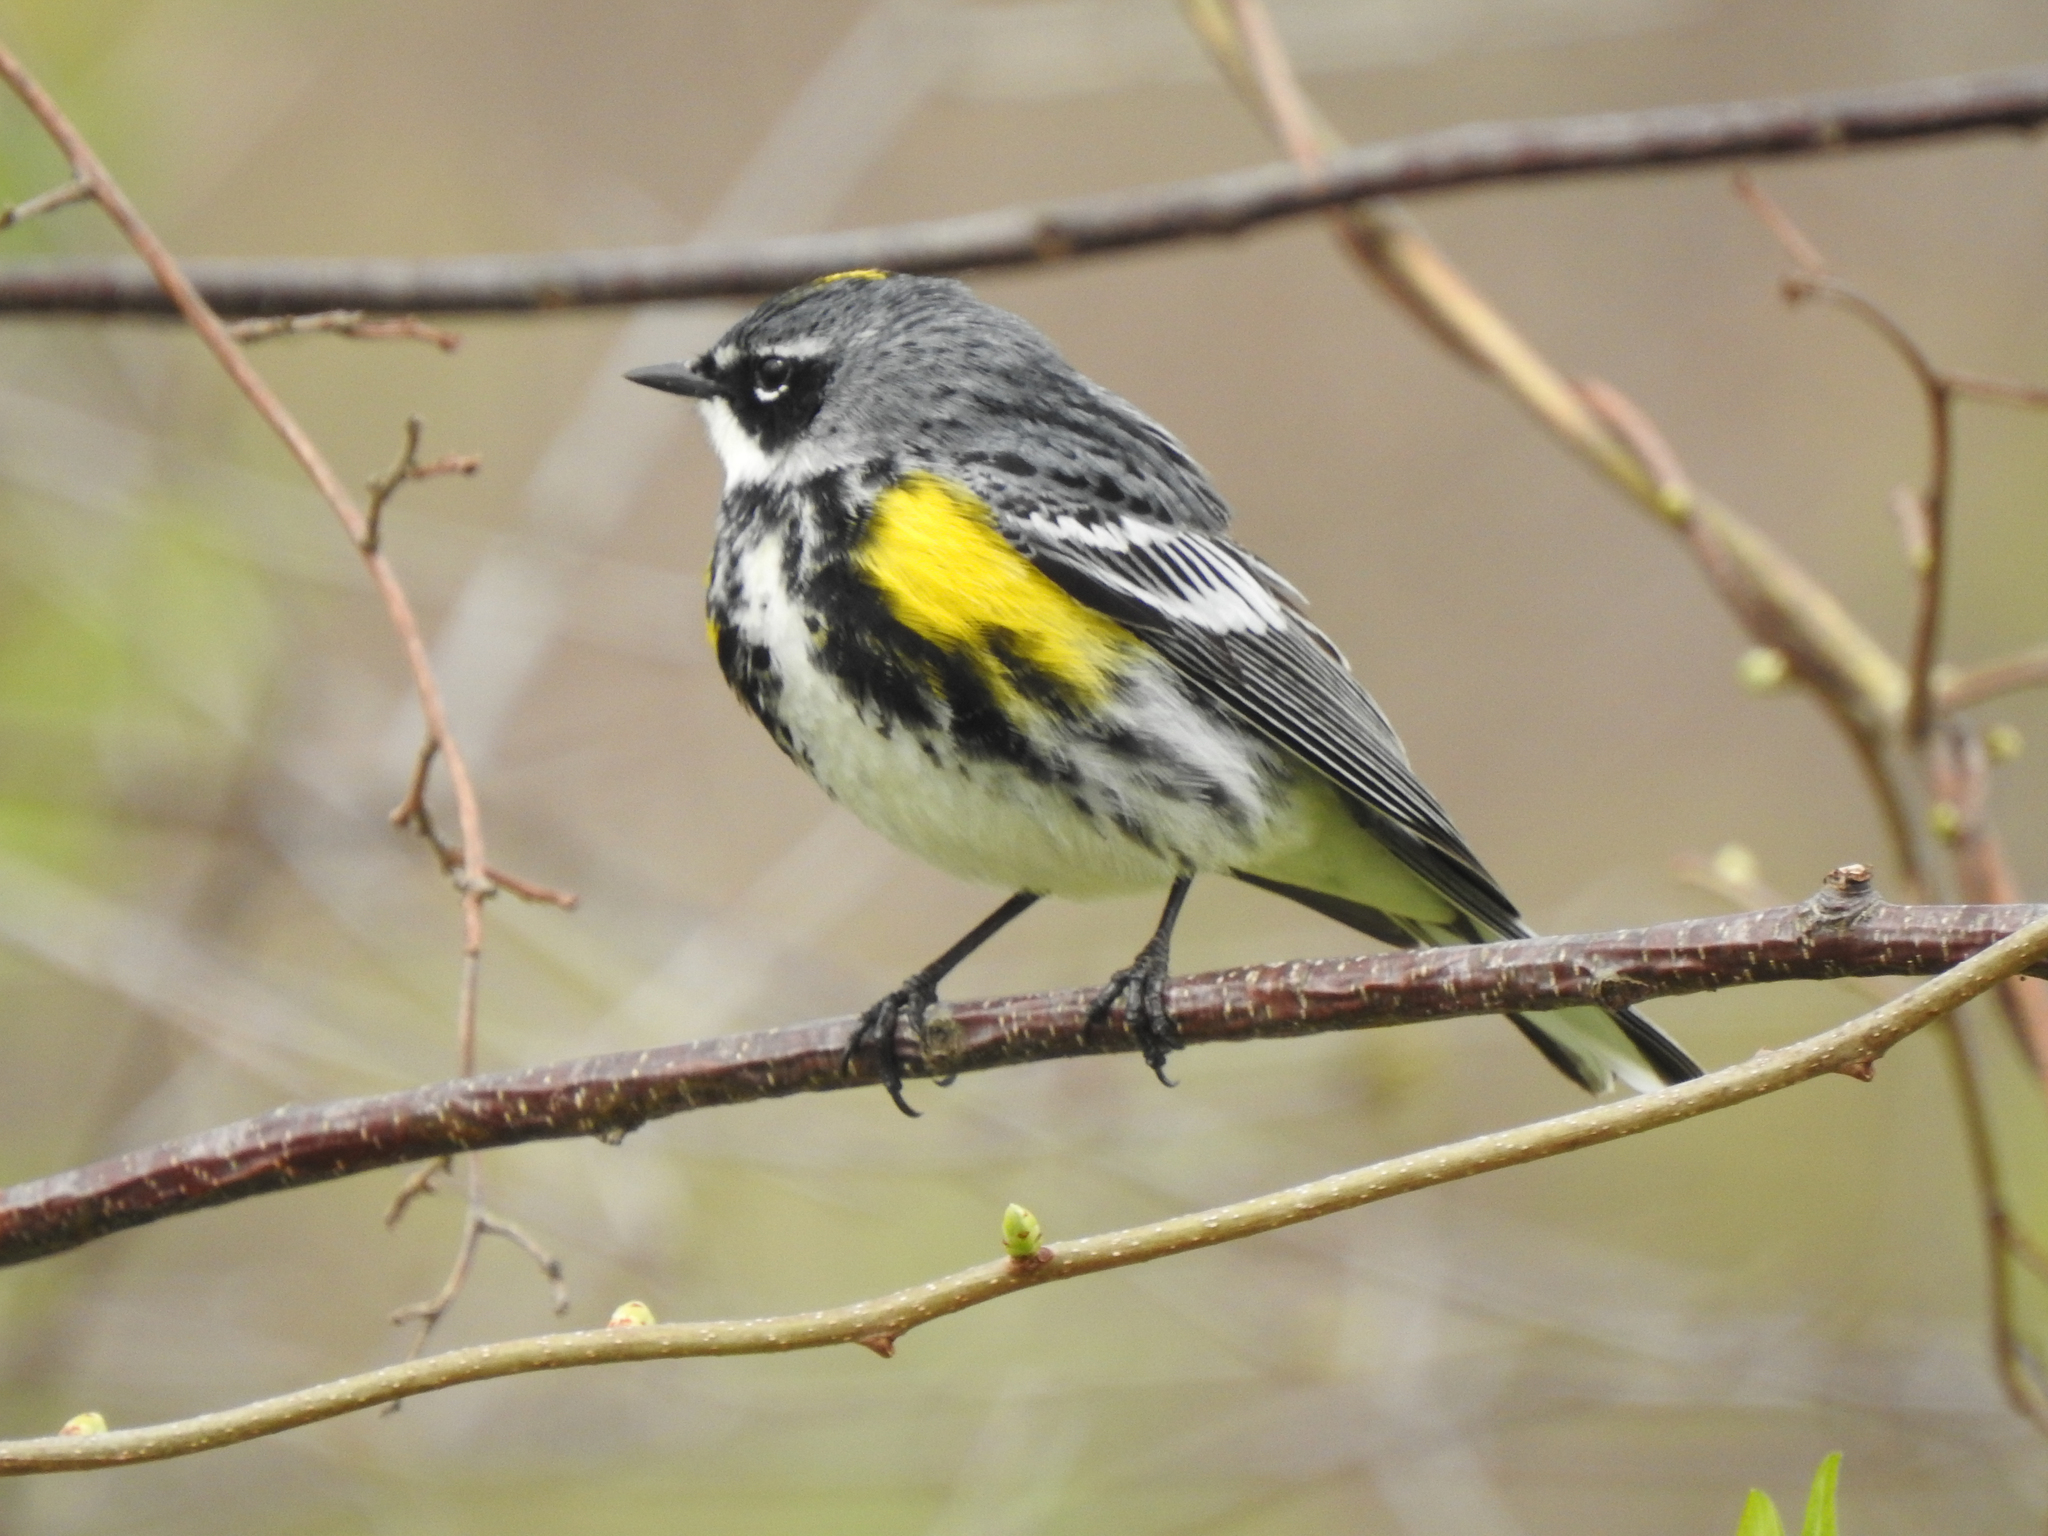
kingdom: Animalia
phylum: Chordata
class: Aves
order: Passeriformes
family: Parulidae
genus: Setophaga
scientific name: Setophaga coronata
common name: Myrtle warbler
